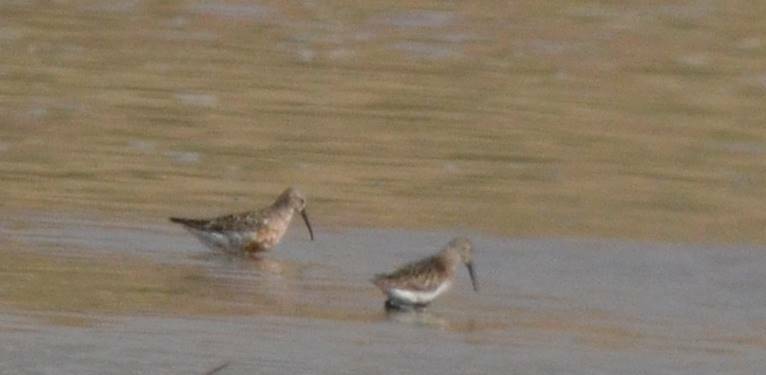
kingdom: Animalia
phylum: Chordata
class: Aves
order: Charadriiformes
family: Scolopacidae
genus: Calidris
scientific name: Calidris ferruginea
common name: Curlew sandpiper
